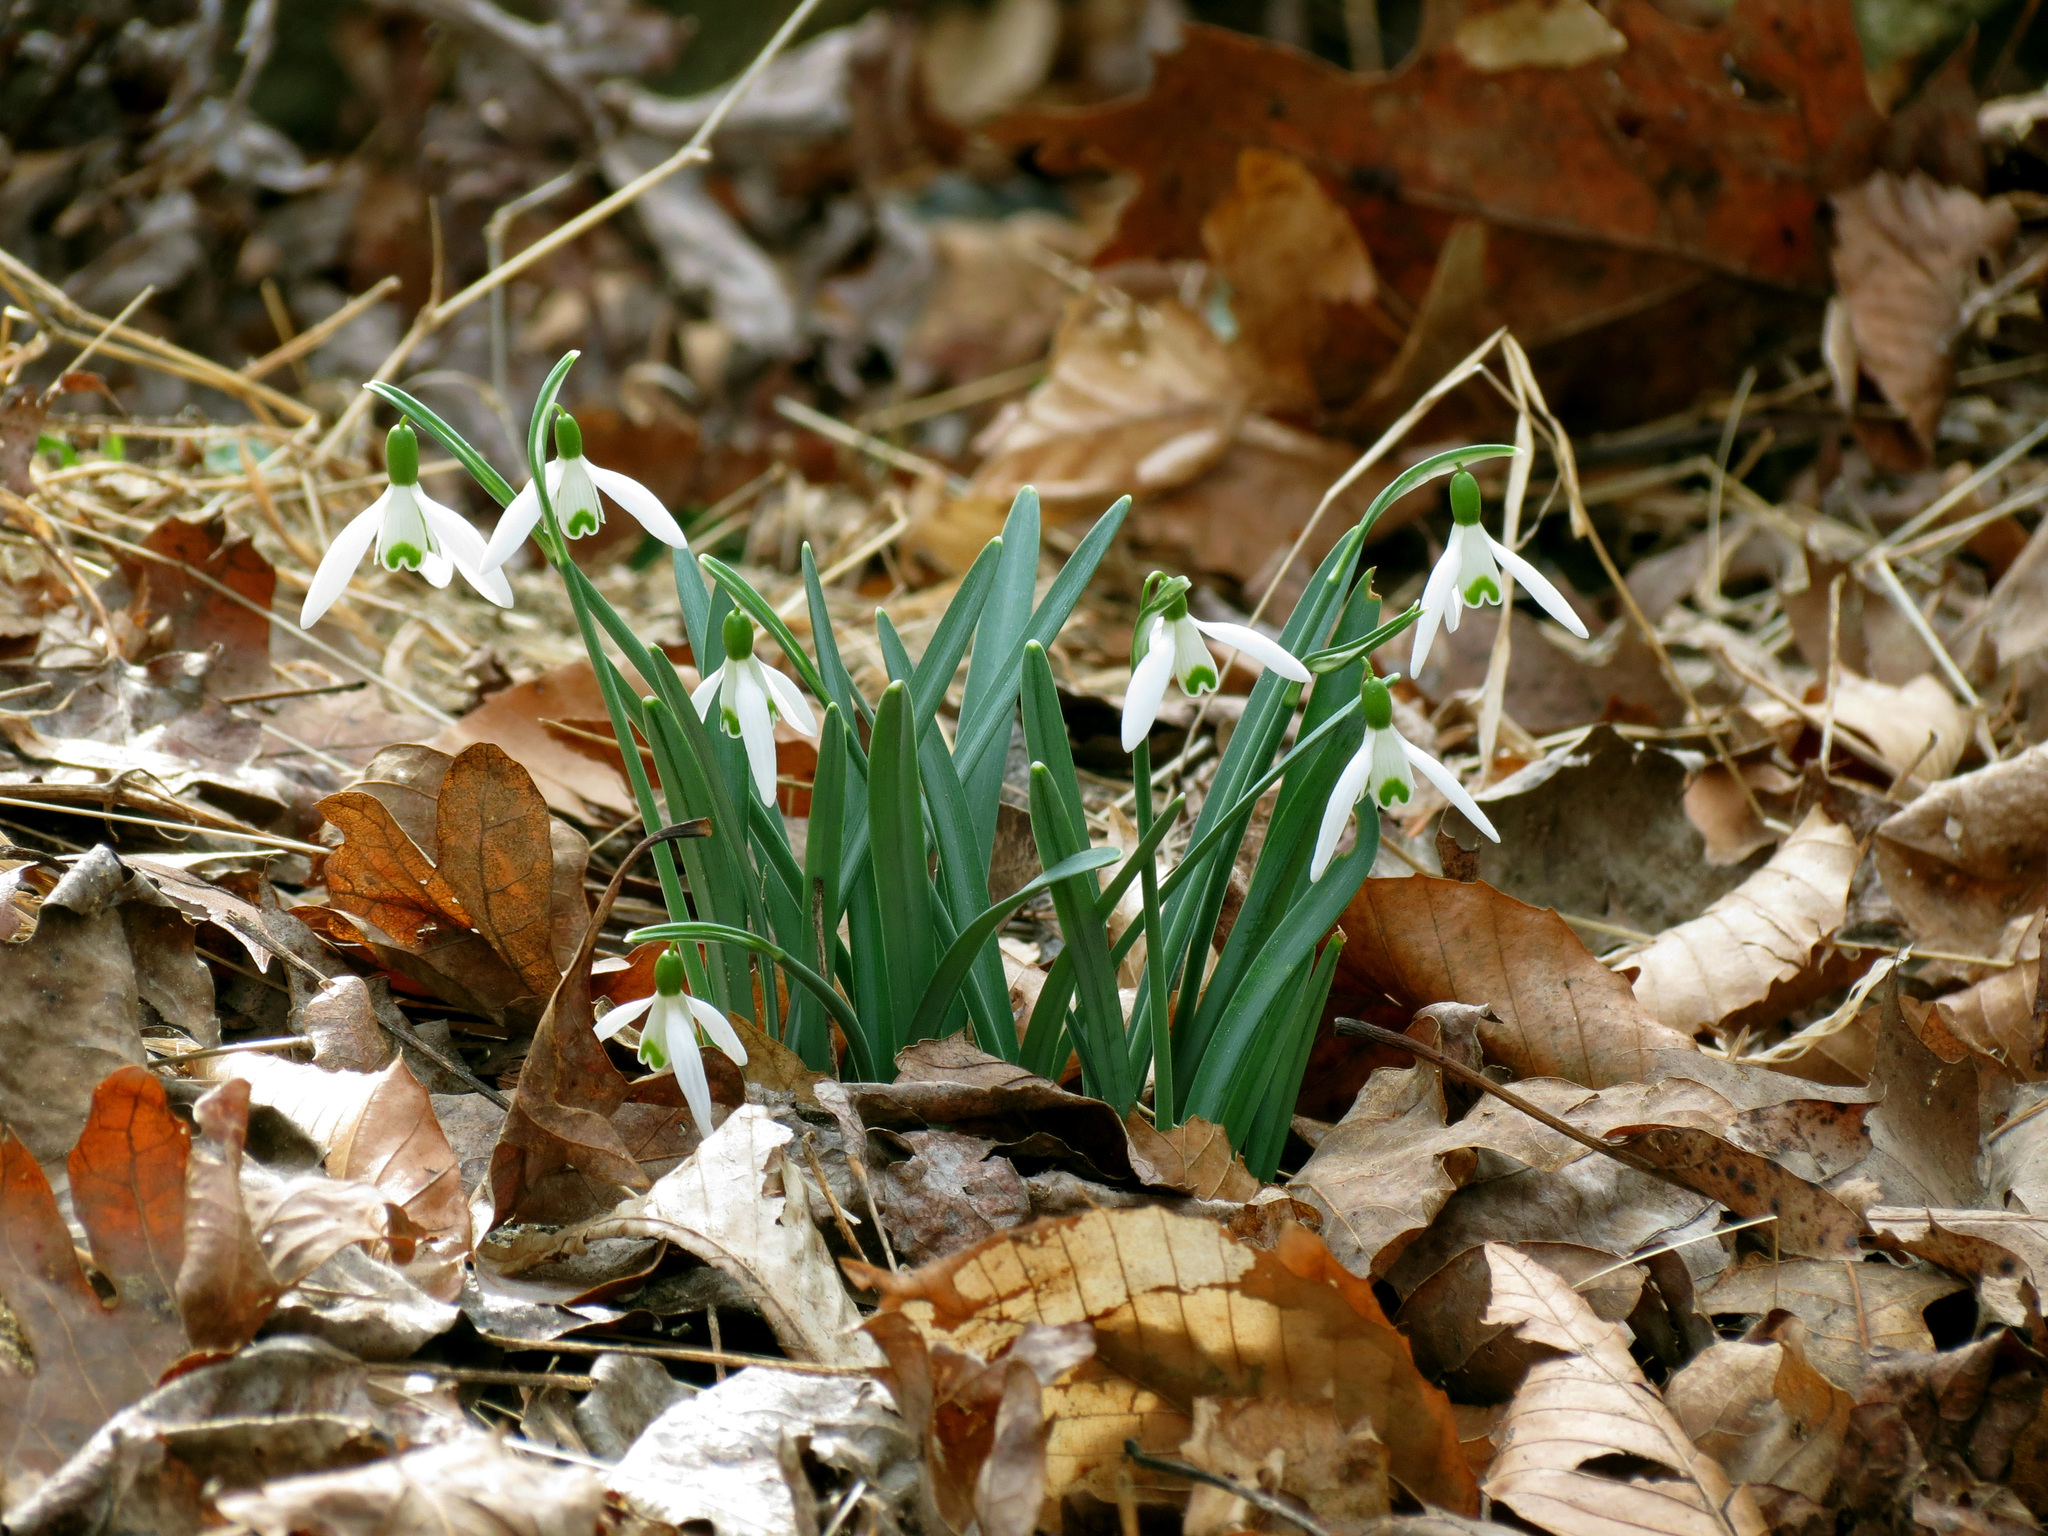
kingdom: Plantae
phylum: Tracheophyta
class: Liliopsida
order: Asparagales
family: Amaryllidaceae
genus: Galanthus
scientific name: Galanthus nivalis
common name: Snowdrop
